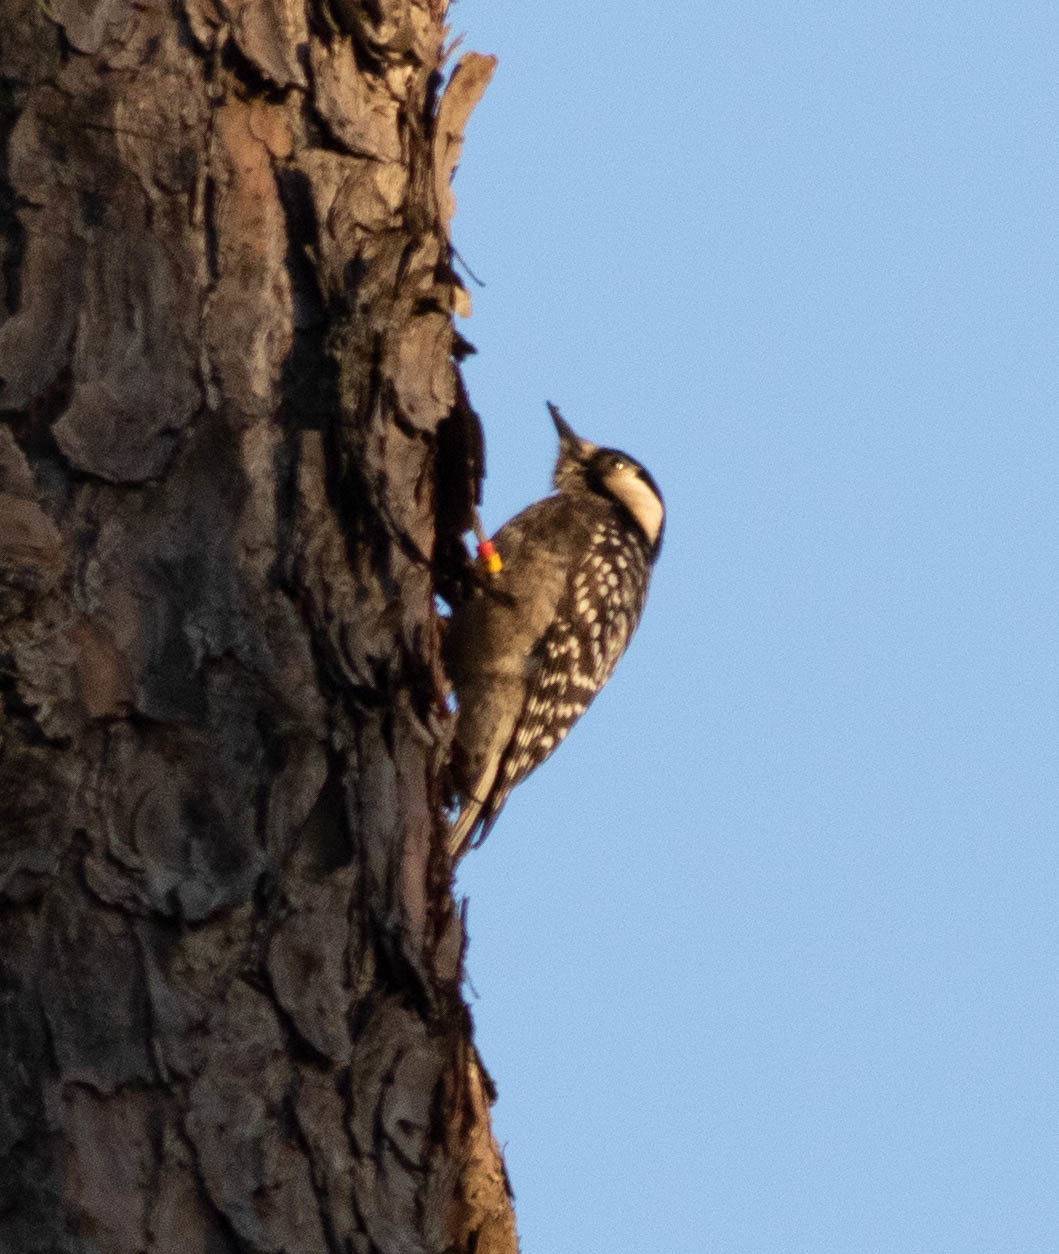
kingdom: Animalia
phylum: Chordata
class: Aves
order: Piciformes
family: Picidae
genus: Leuconotopicus
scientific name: Leuconotopicus borealis
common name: Red-cockaded woodpecker
